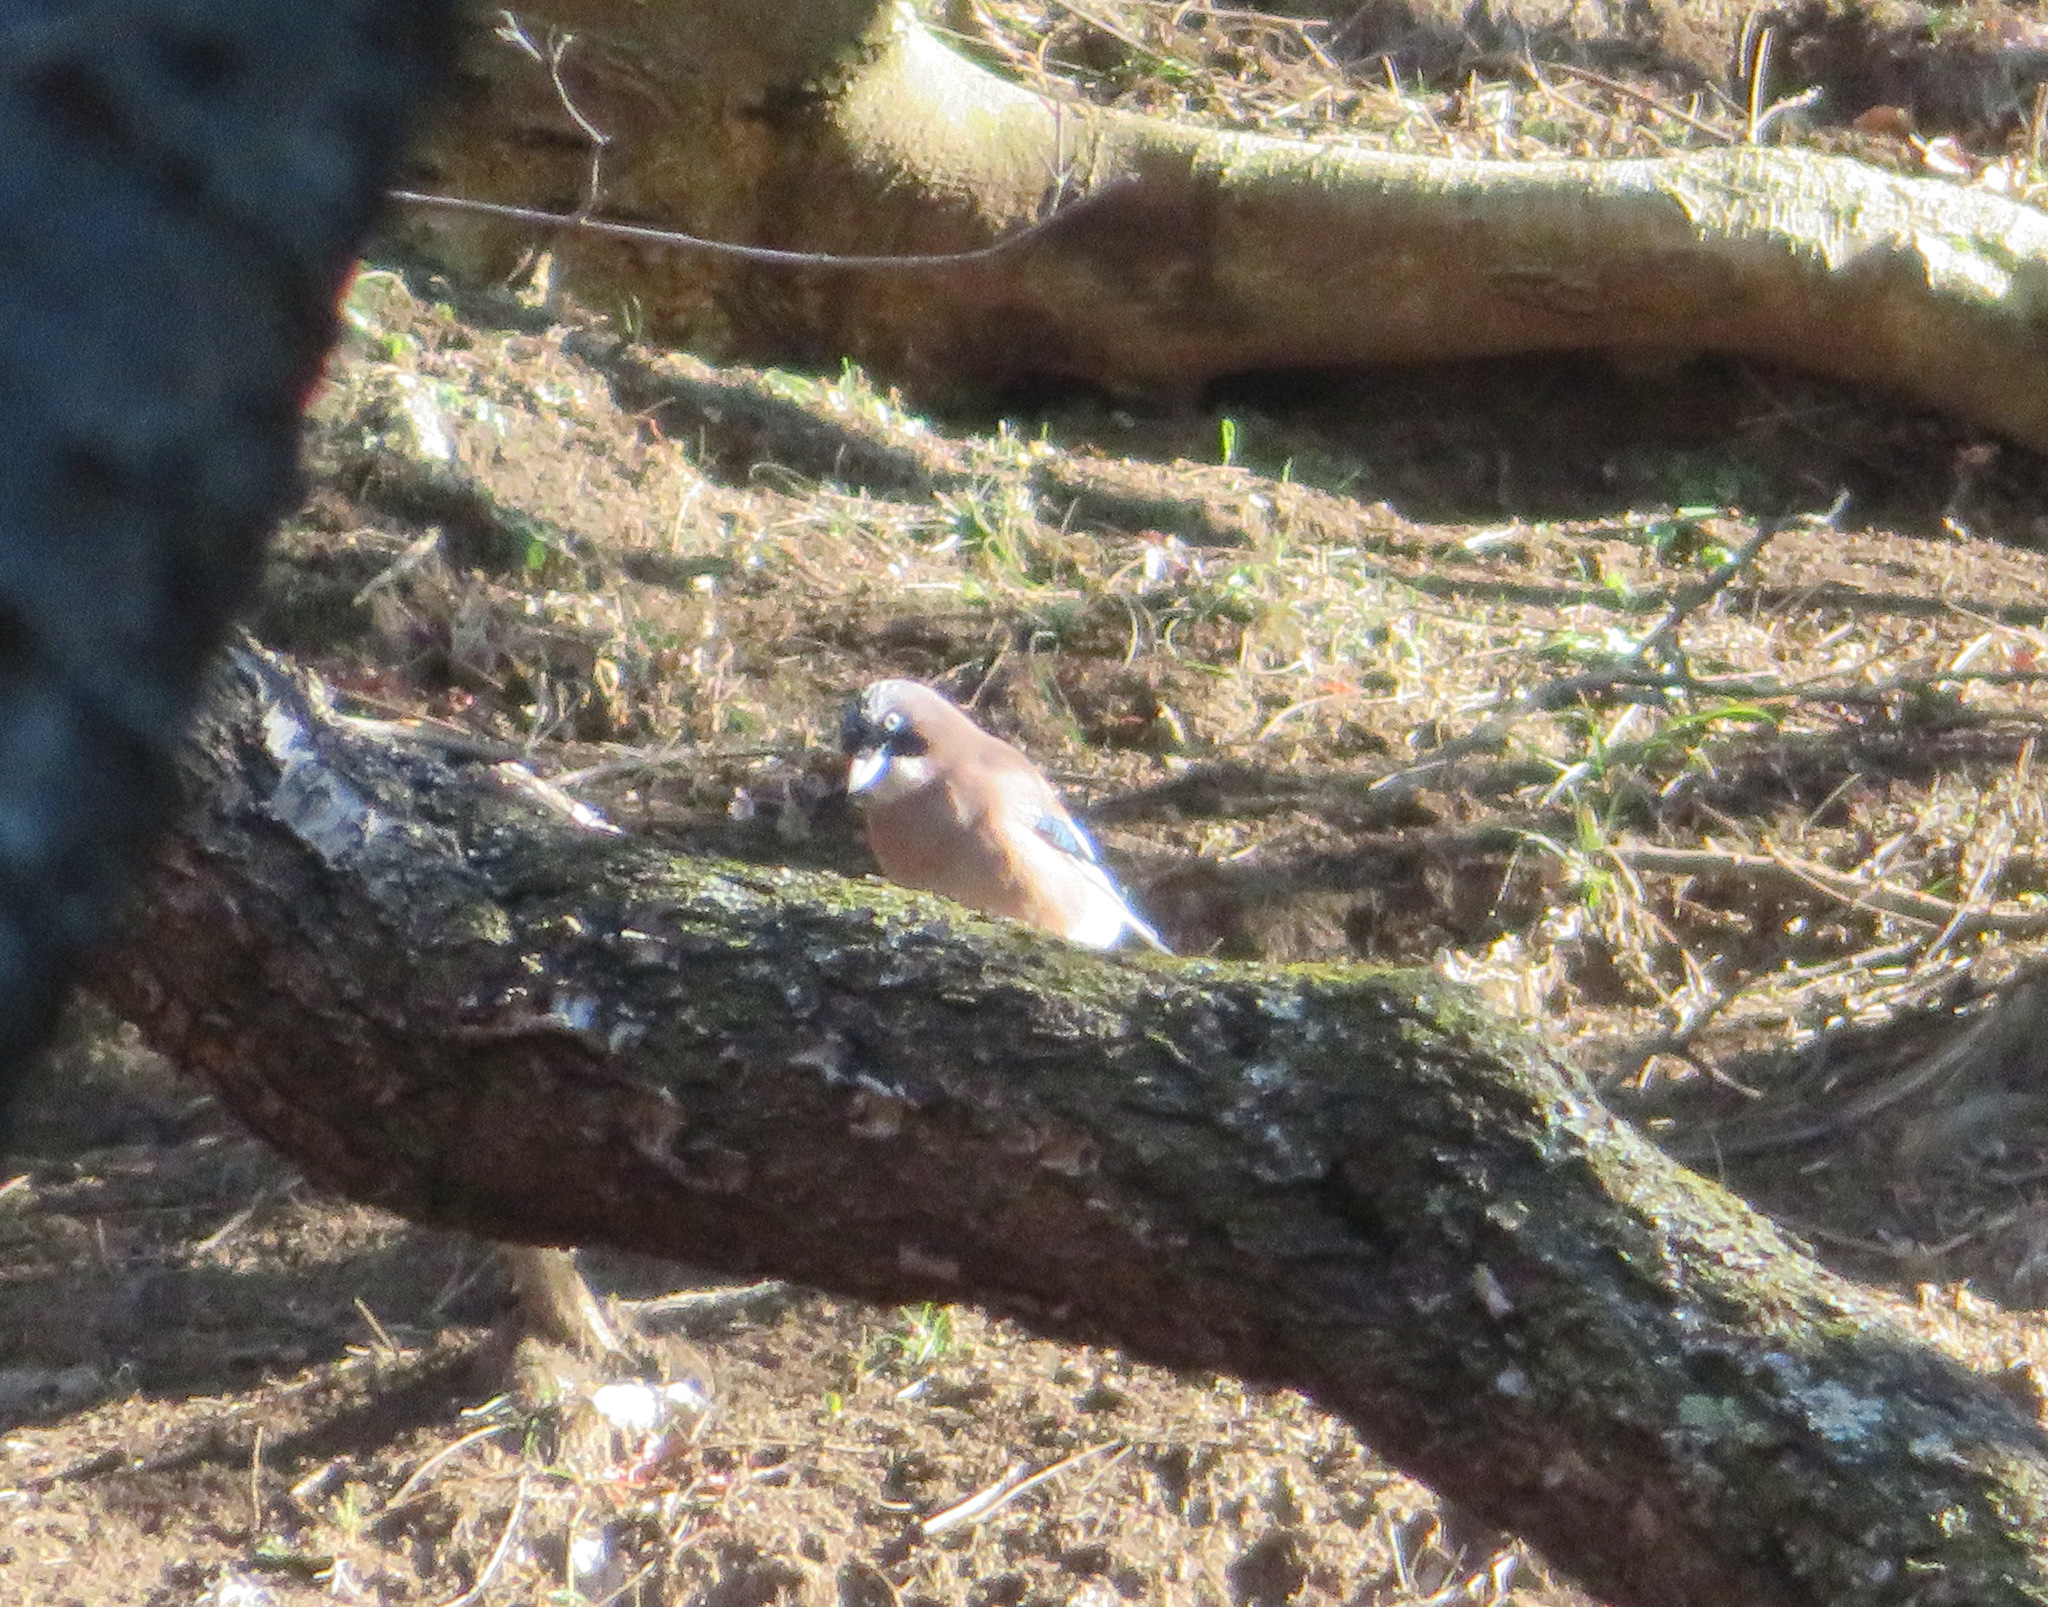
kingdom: Animalia
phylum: Chordata
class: Aves
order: Passeriformes
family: Corvidae
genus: Garrulus
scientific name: Garrulus glandarius
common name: Eurasian jay
